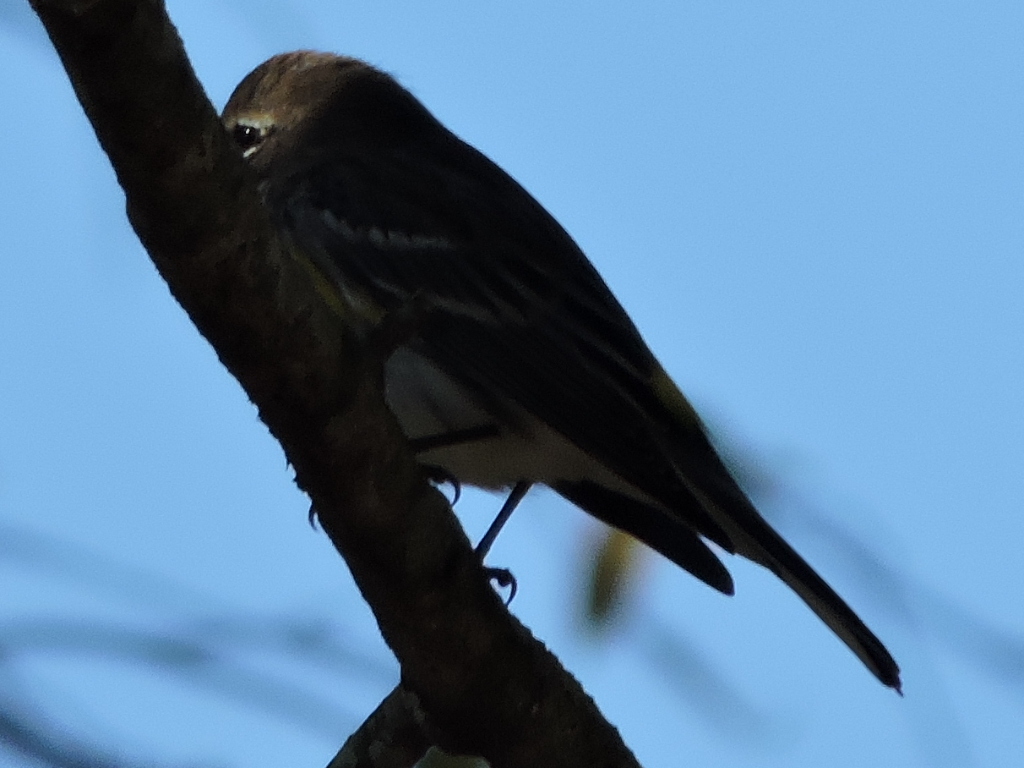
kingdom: Animalia
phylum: Chordata
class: Aves
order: Passeriformes
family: Parulidae
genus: Setophaga
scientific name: Setophaga coronata
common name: Myrtle warbler
